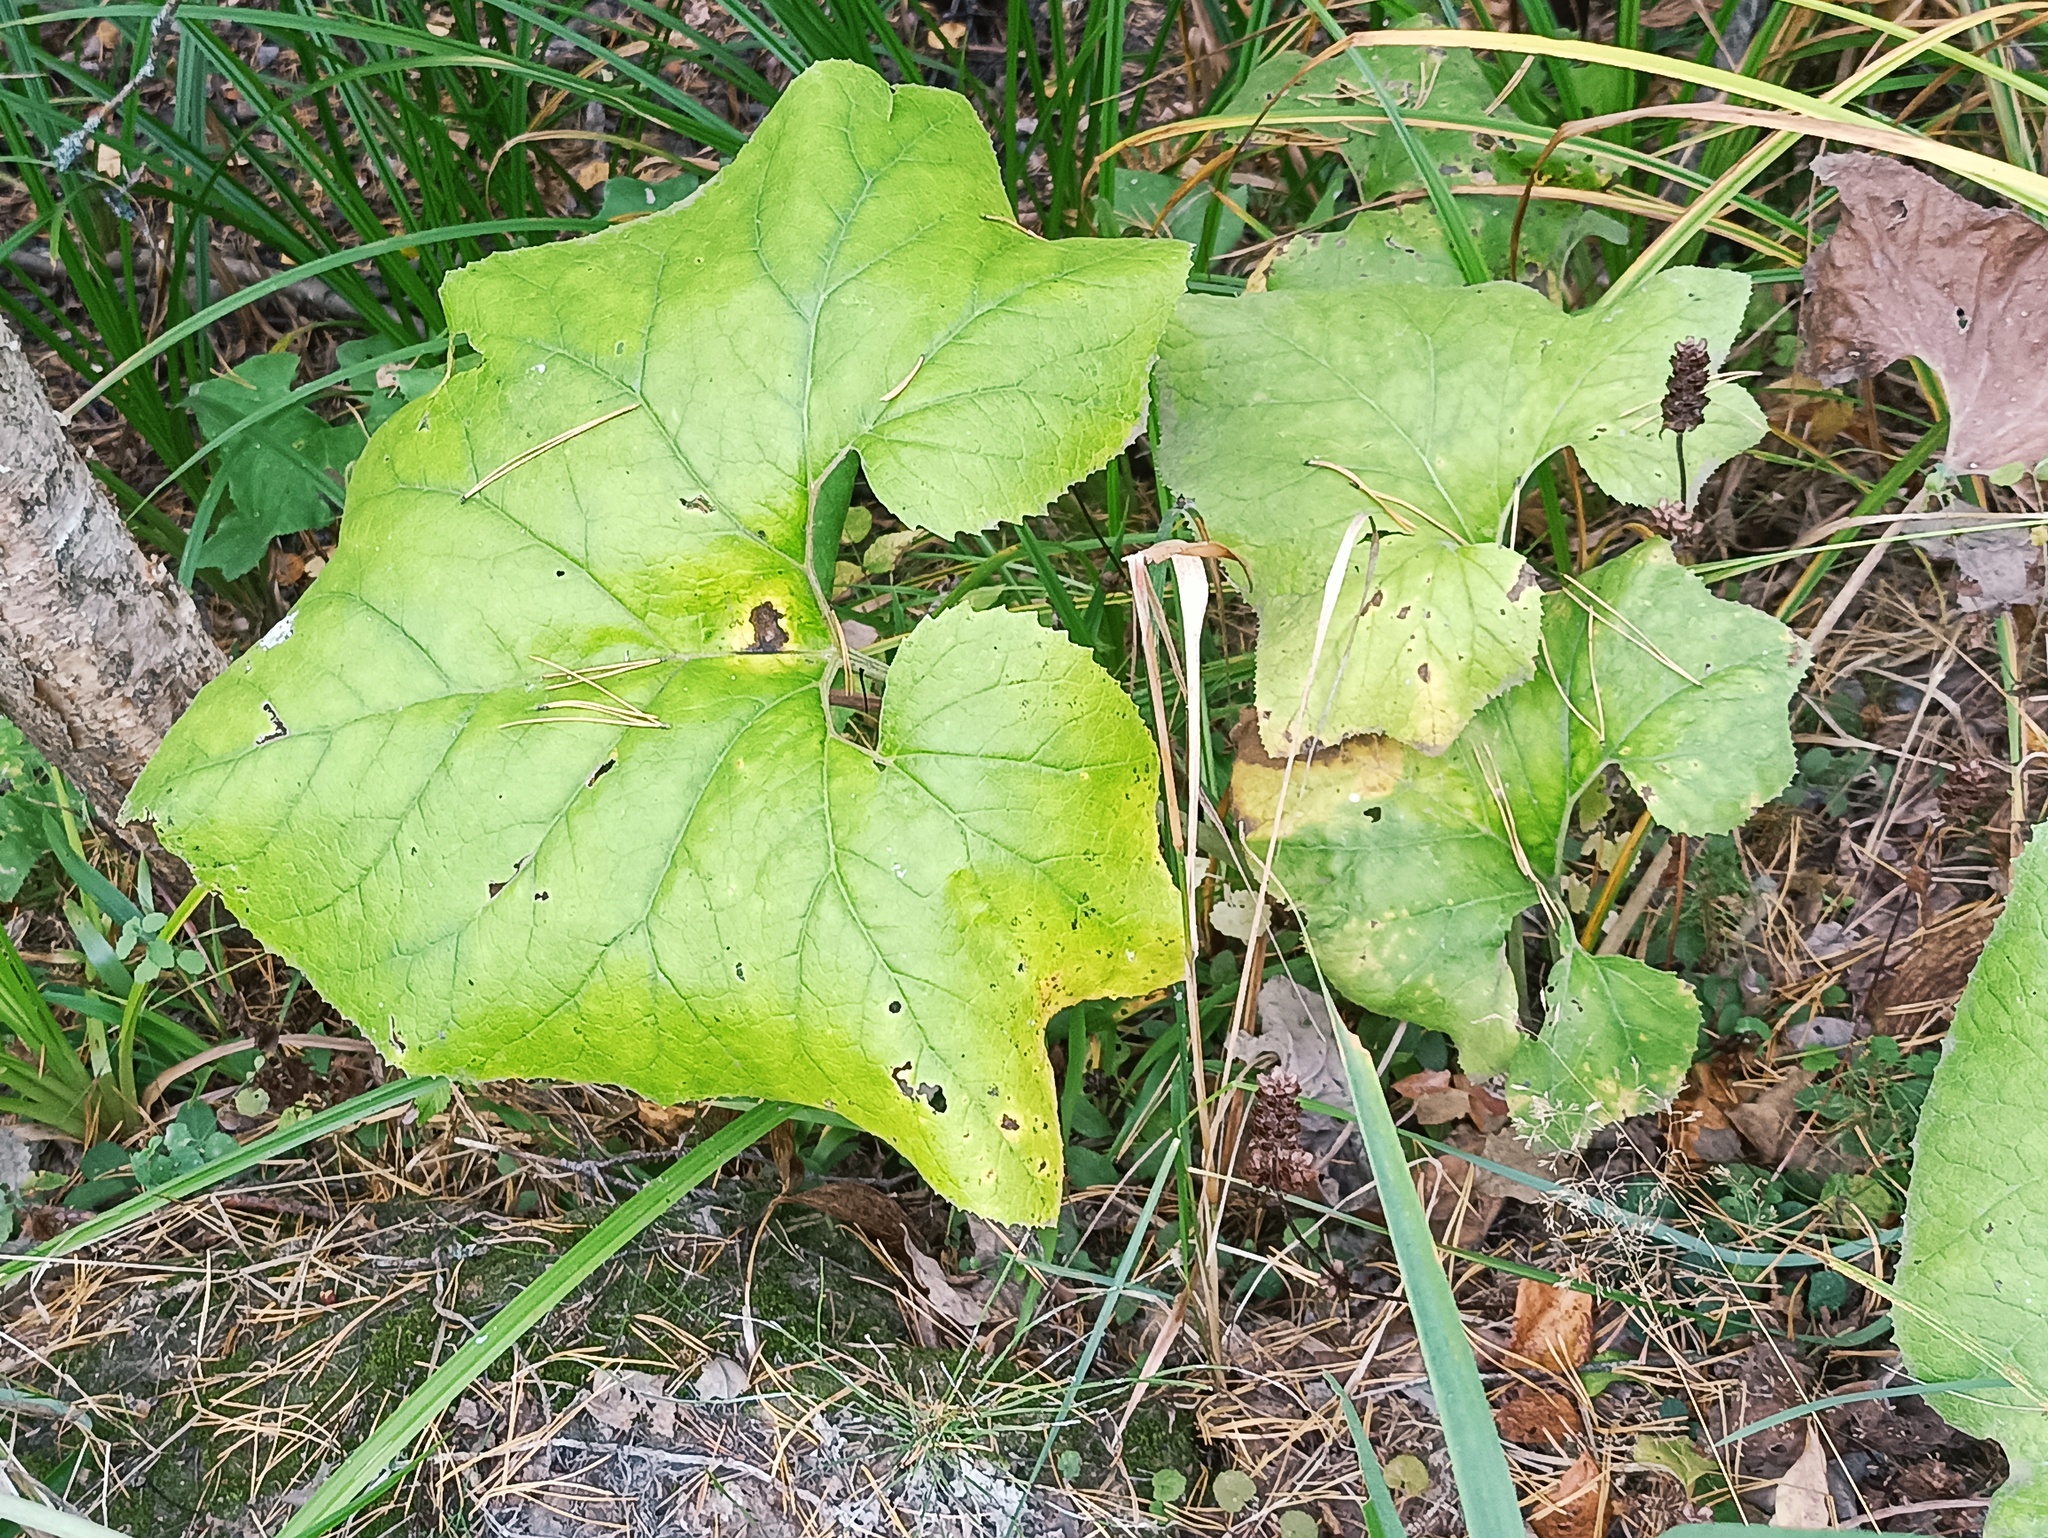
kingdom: Plantae
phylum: Tracheophyta
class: Magnoliopsida
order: Asterales
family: Asteraceae
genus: Petasites
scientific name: Petasites spurius
